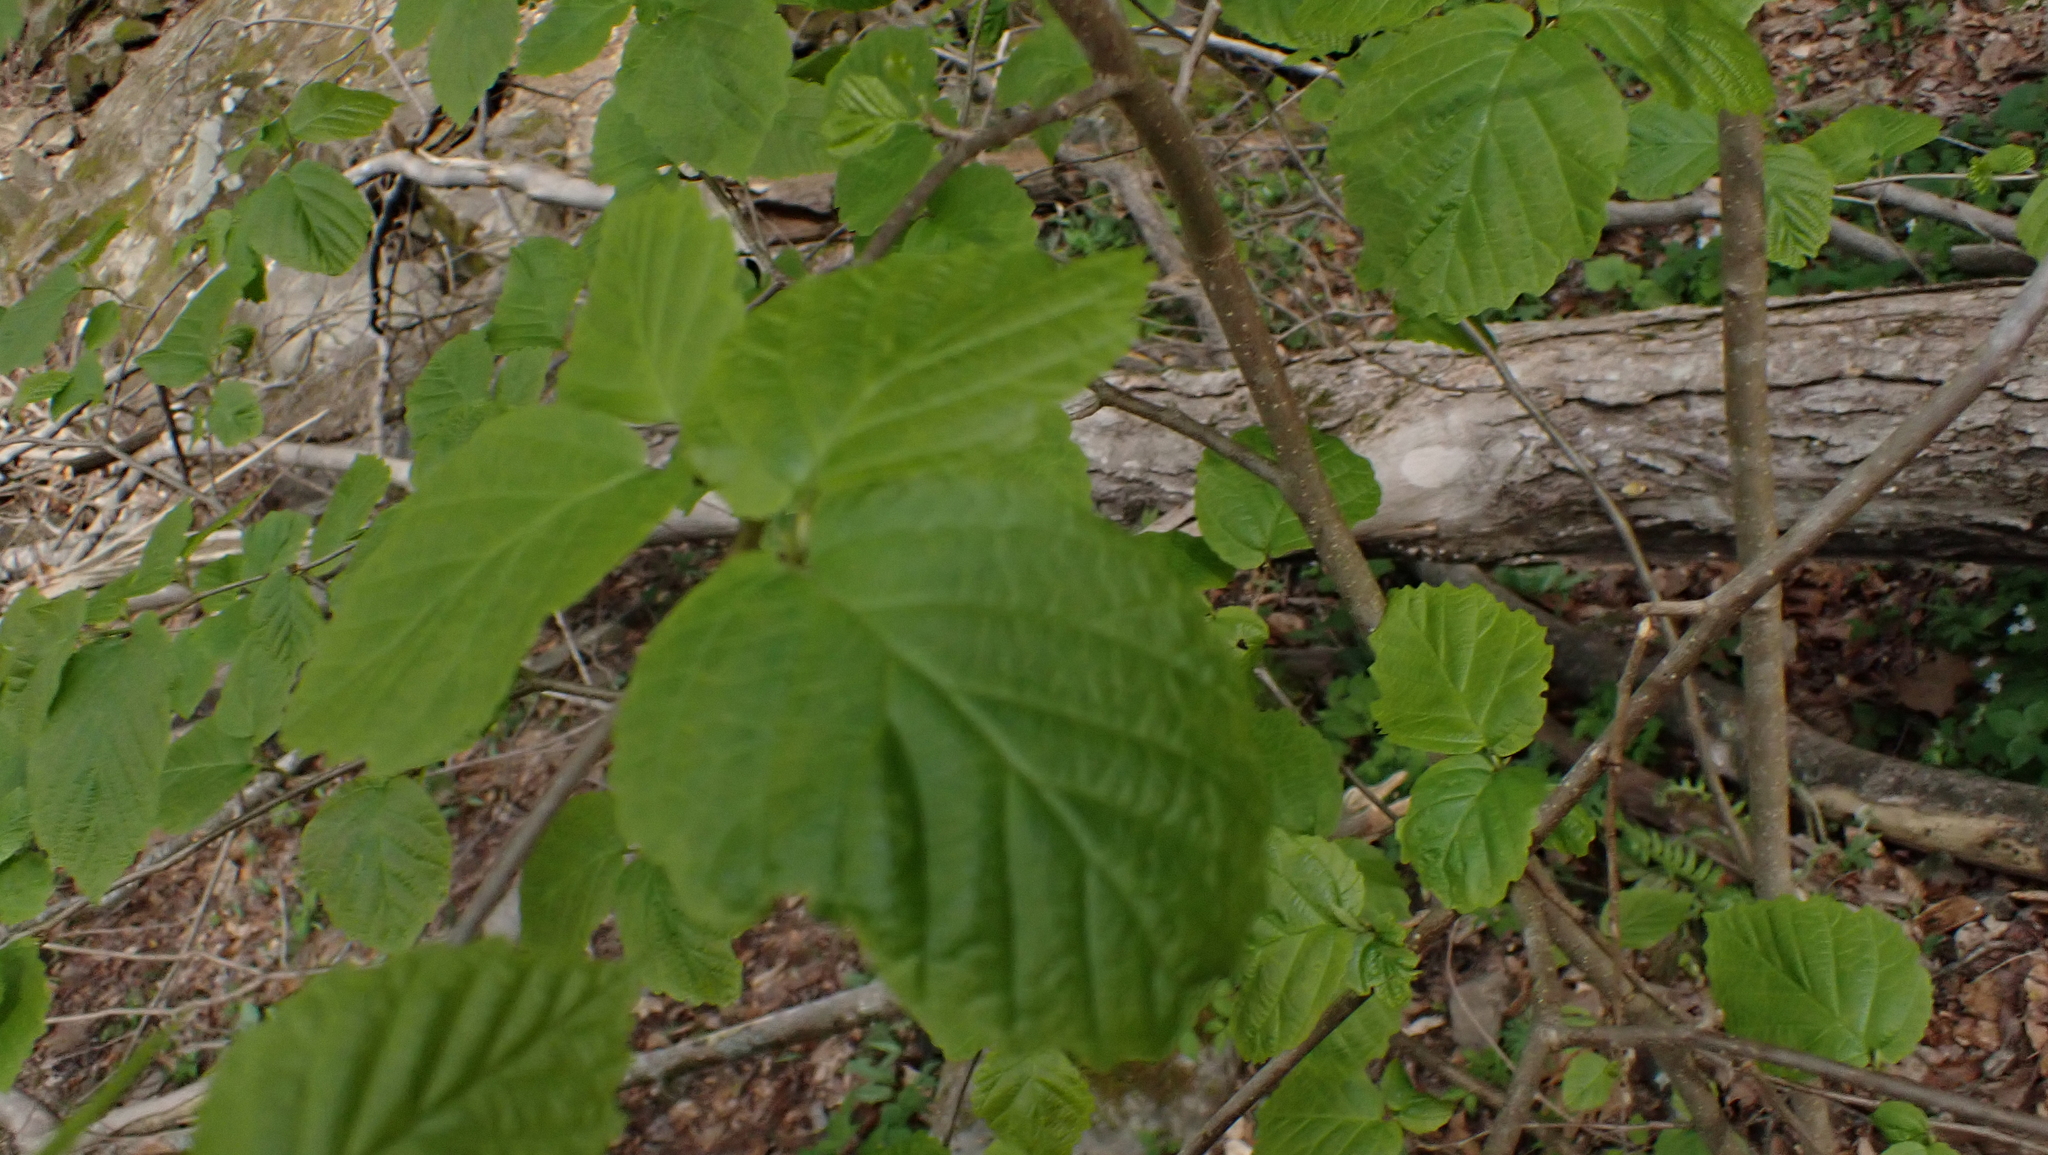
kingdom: Plantae
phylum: Tracheophyta
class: Magnoliopsida
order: Saxifragales
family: Hamamelidaceae
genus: Hamamelis
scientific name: Hamamelis virginiana
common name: Witch-hazel
